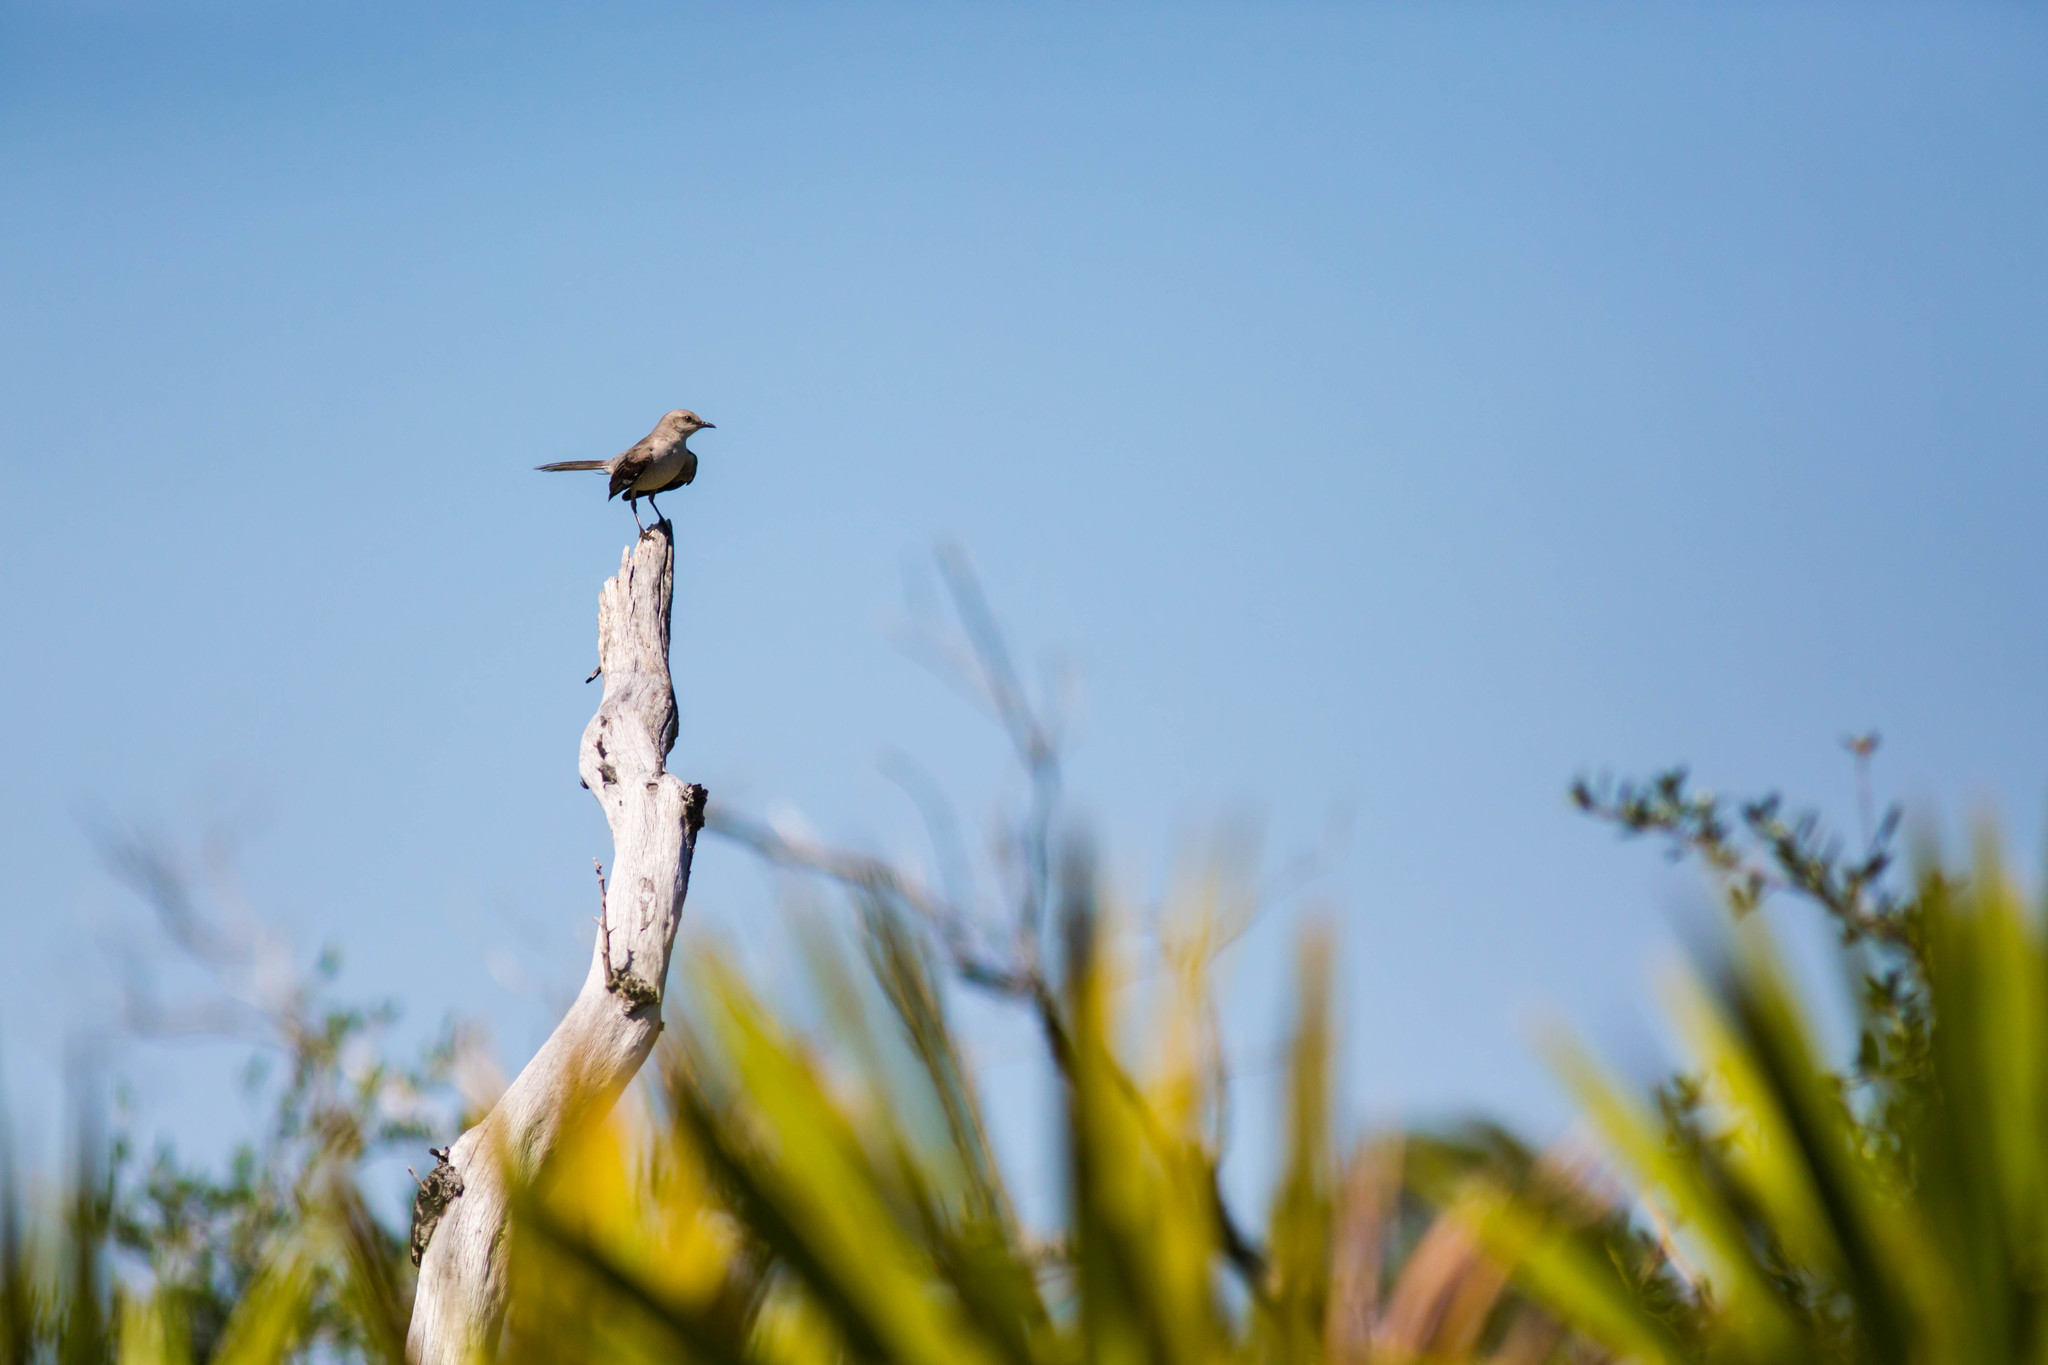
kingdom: Animalia
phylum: Chordata
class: Aves
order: Passeriformes
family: Mimidae
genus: Mimus
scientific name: Mimus polyglottos
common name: Northern mockingbird
